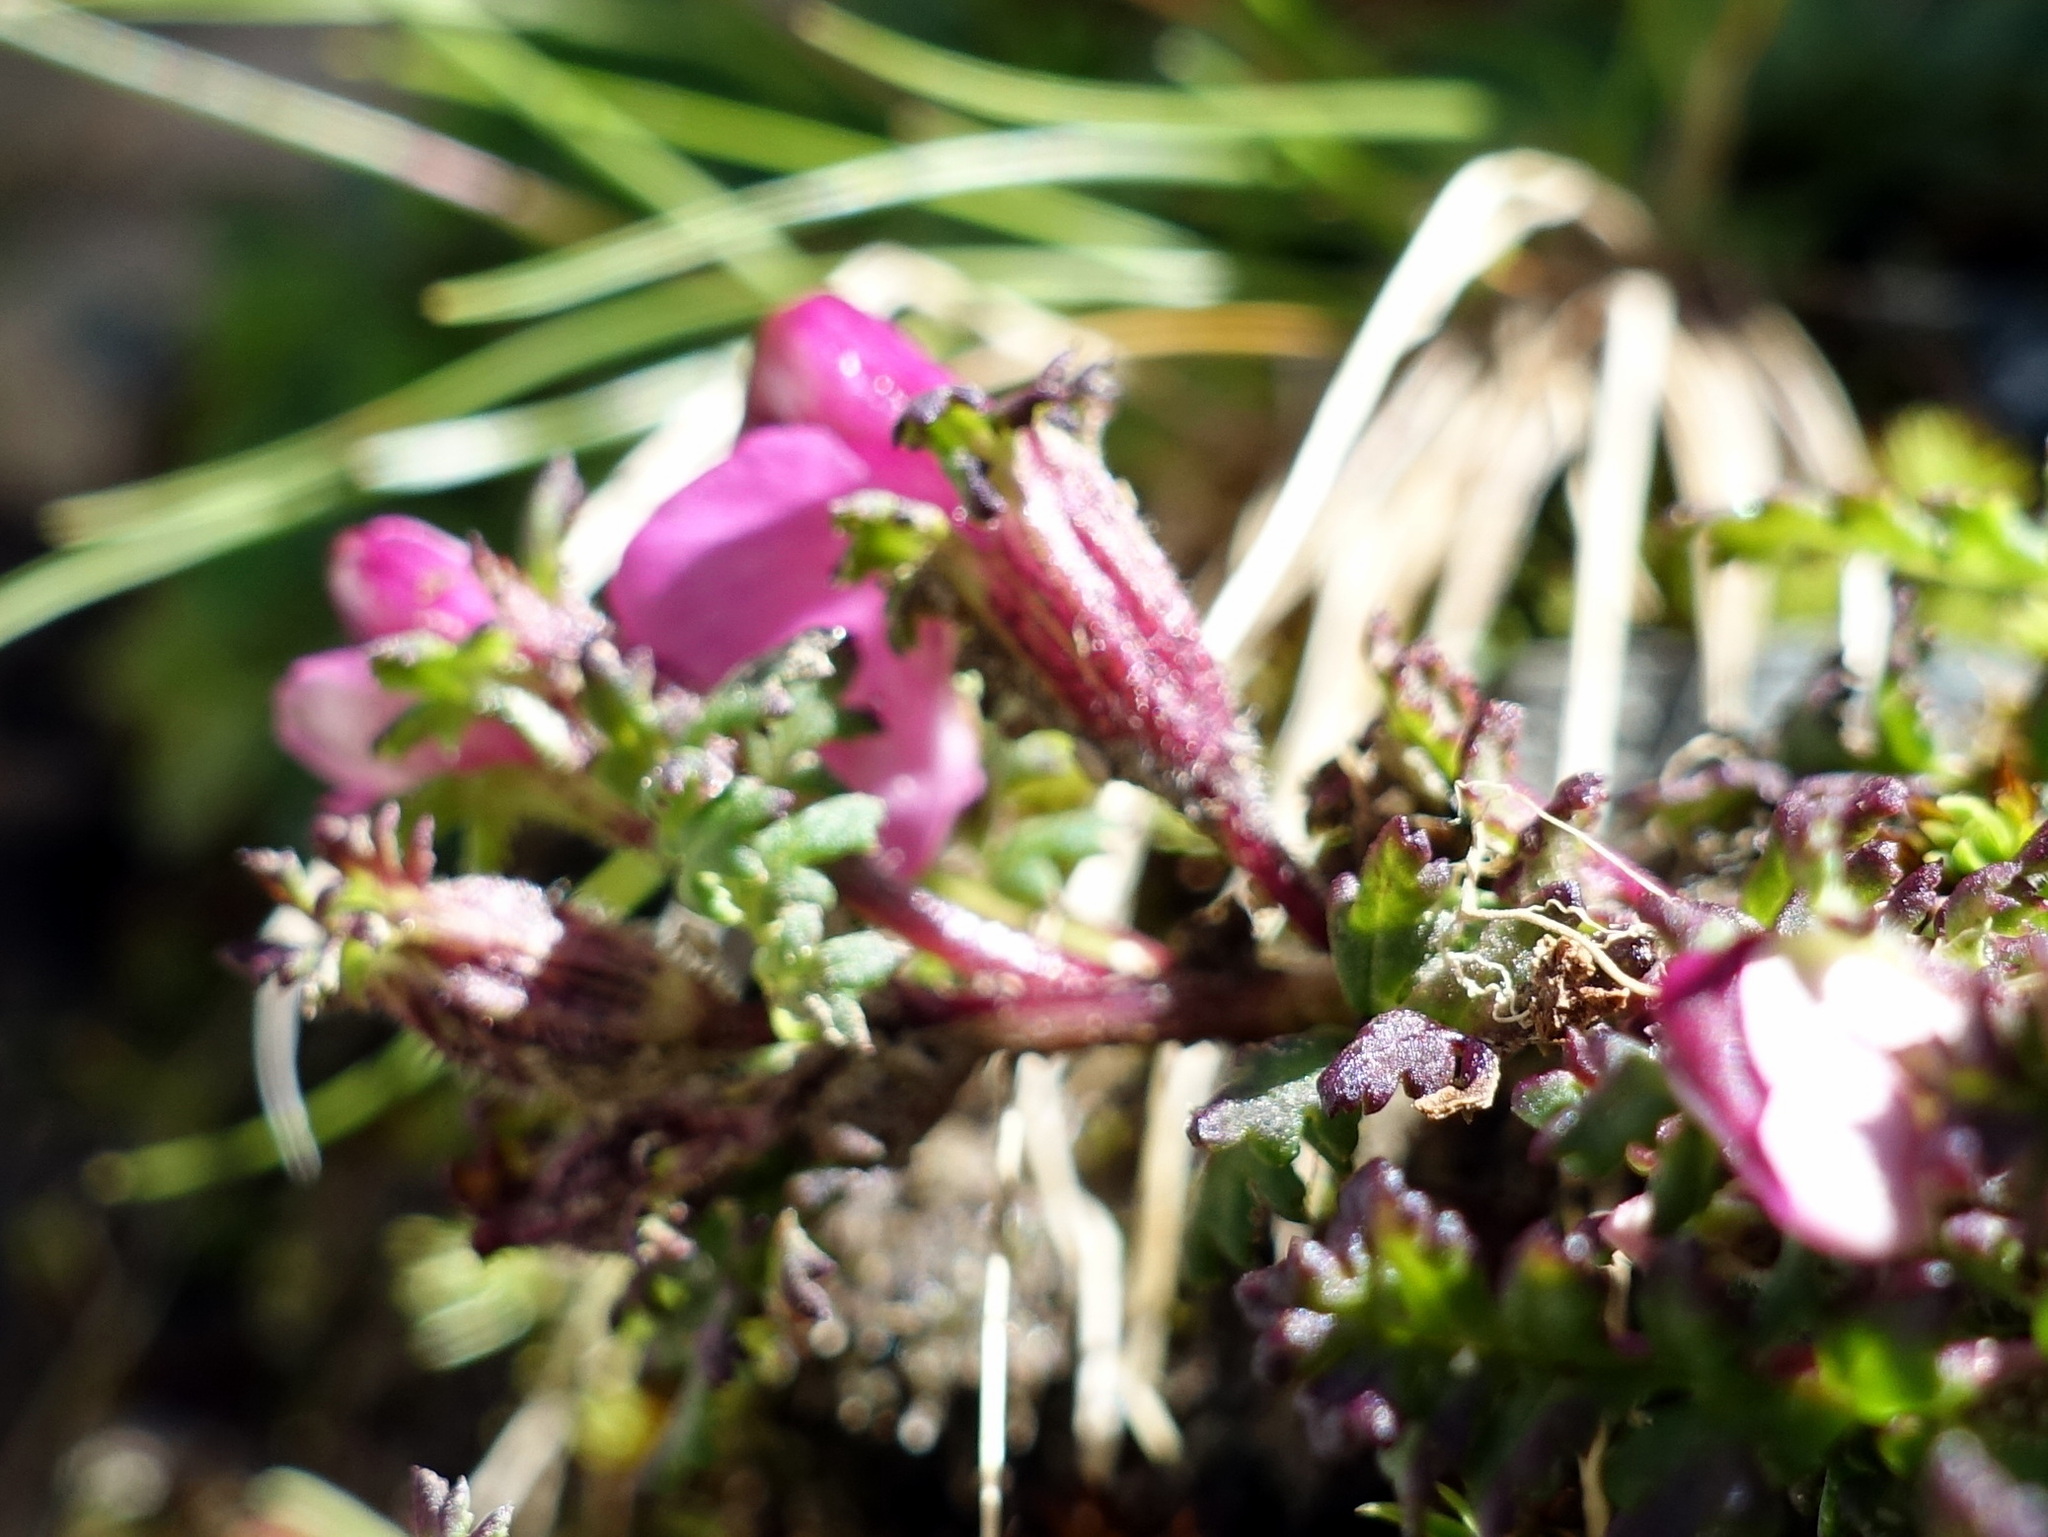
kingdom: Plantae
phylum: Tracheophyta
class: Magnoliopsida
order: Lamiales
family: Orobanchaceae
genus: Pedicularis
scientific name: Pedicularis kerneri
